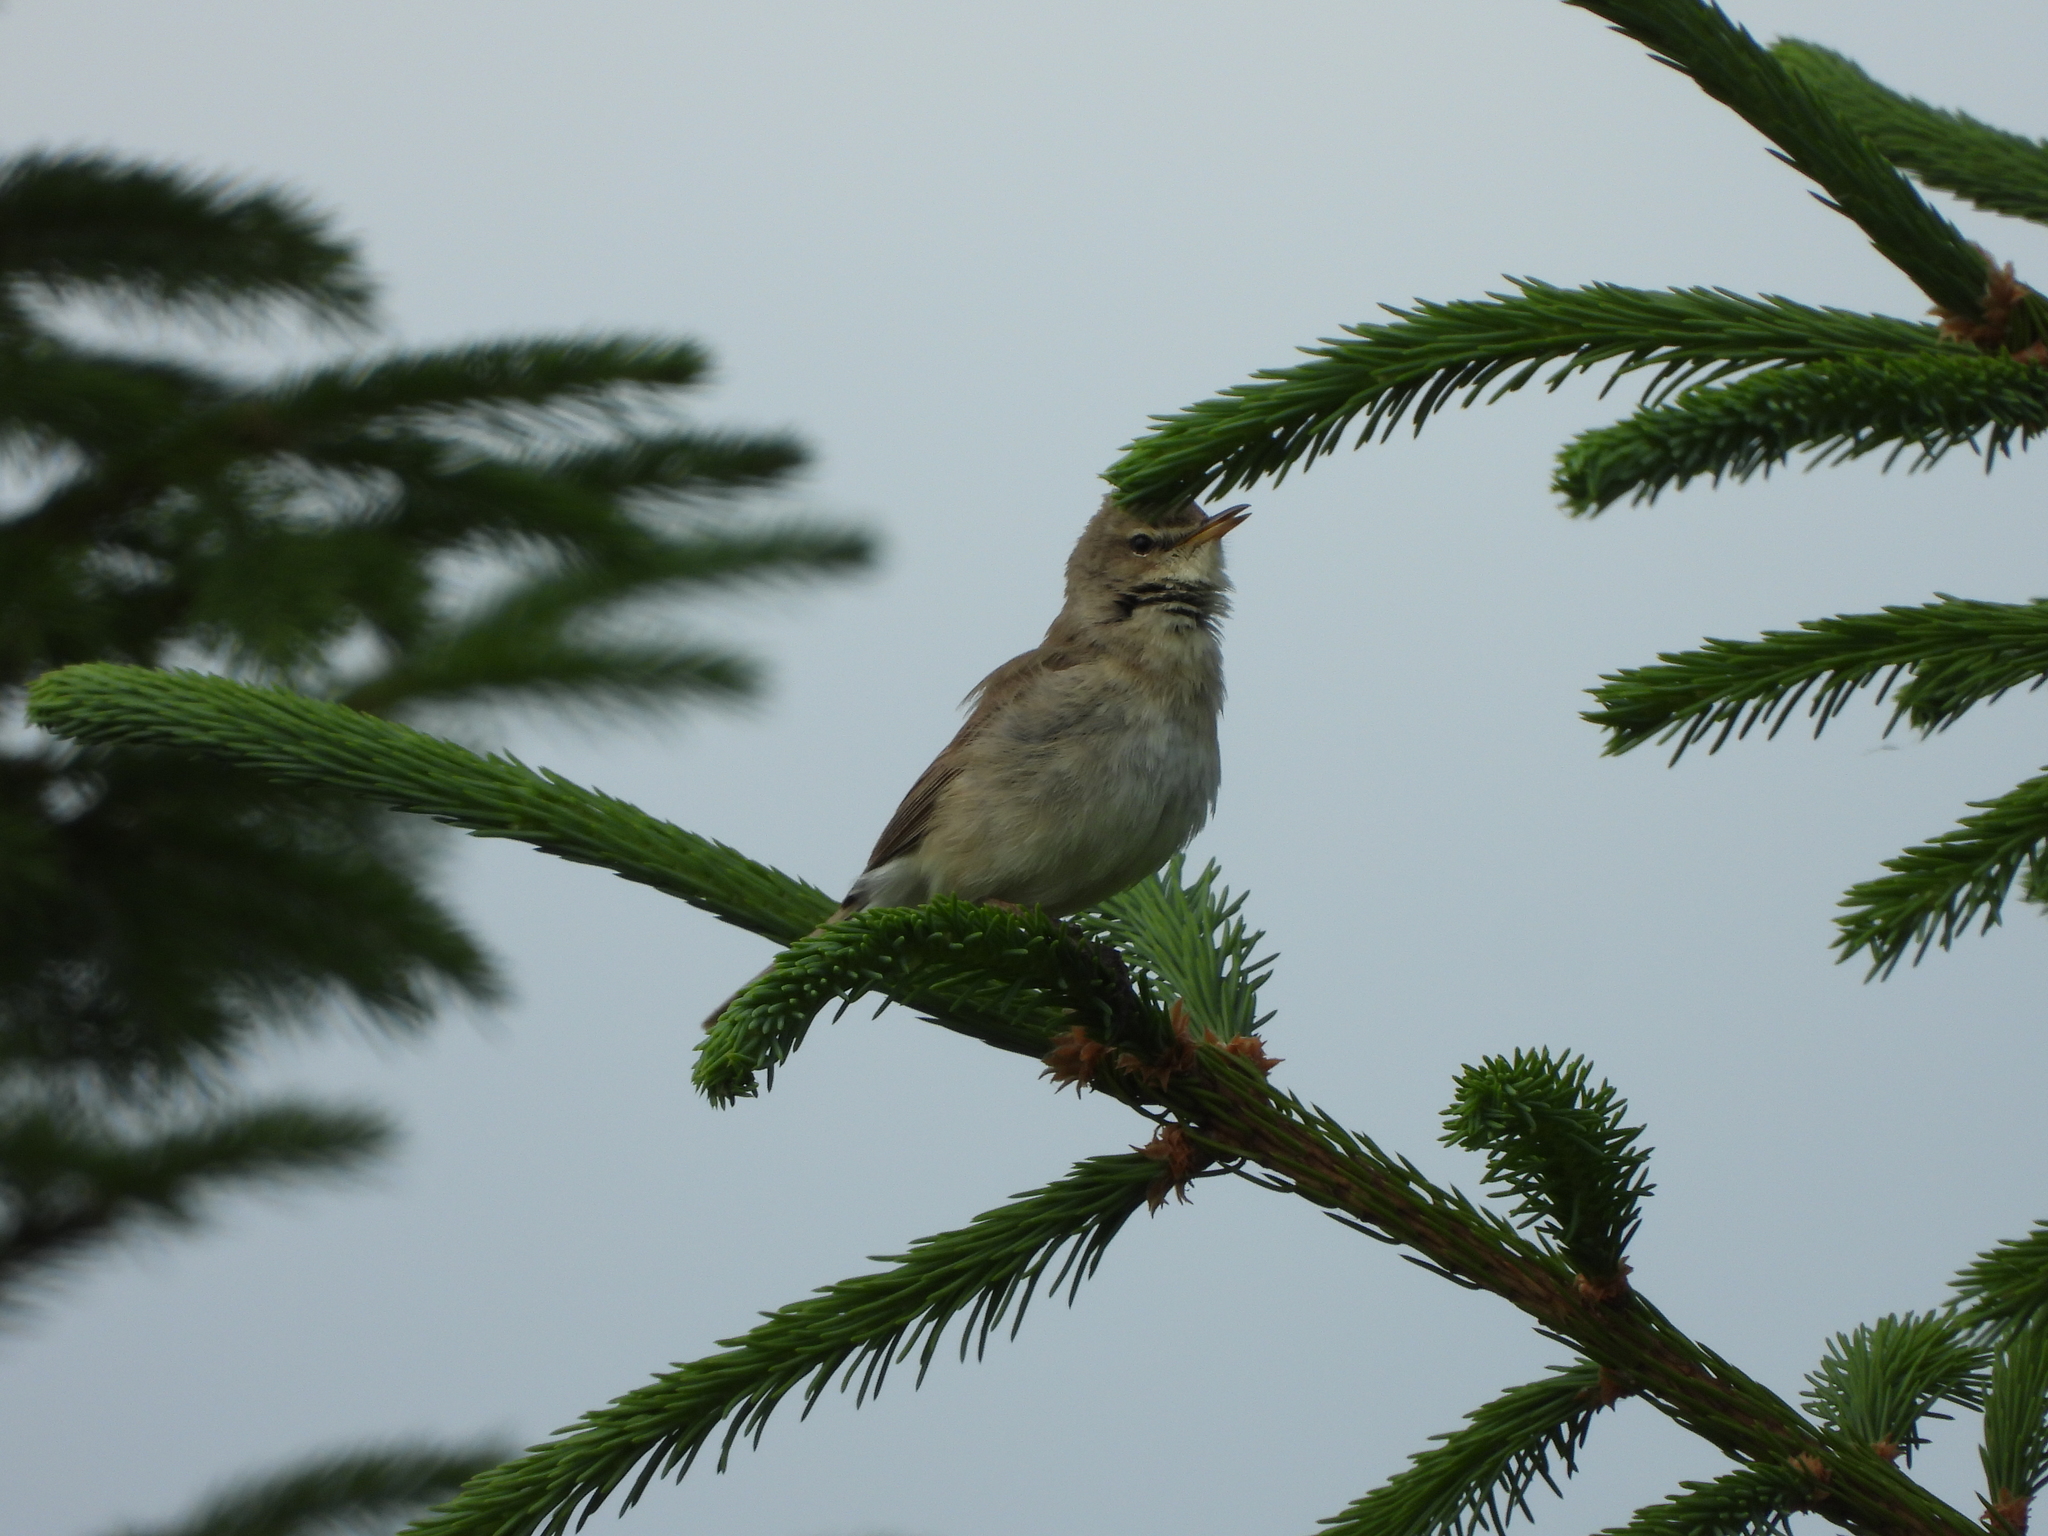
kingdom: Animalia
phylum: Chordata
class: Aves
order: Passeriformes
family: Acrocephalidae
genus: Iduna
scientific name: Iduna caligata
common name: Booted warbler
